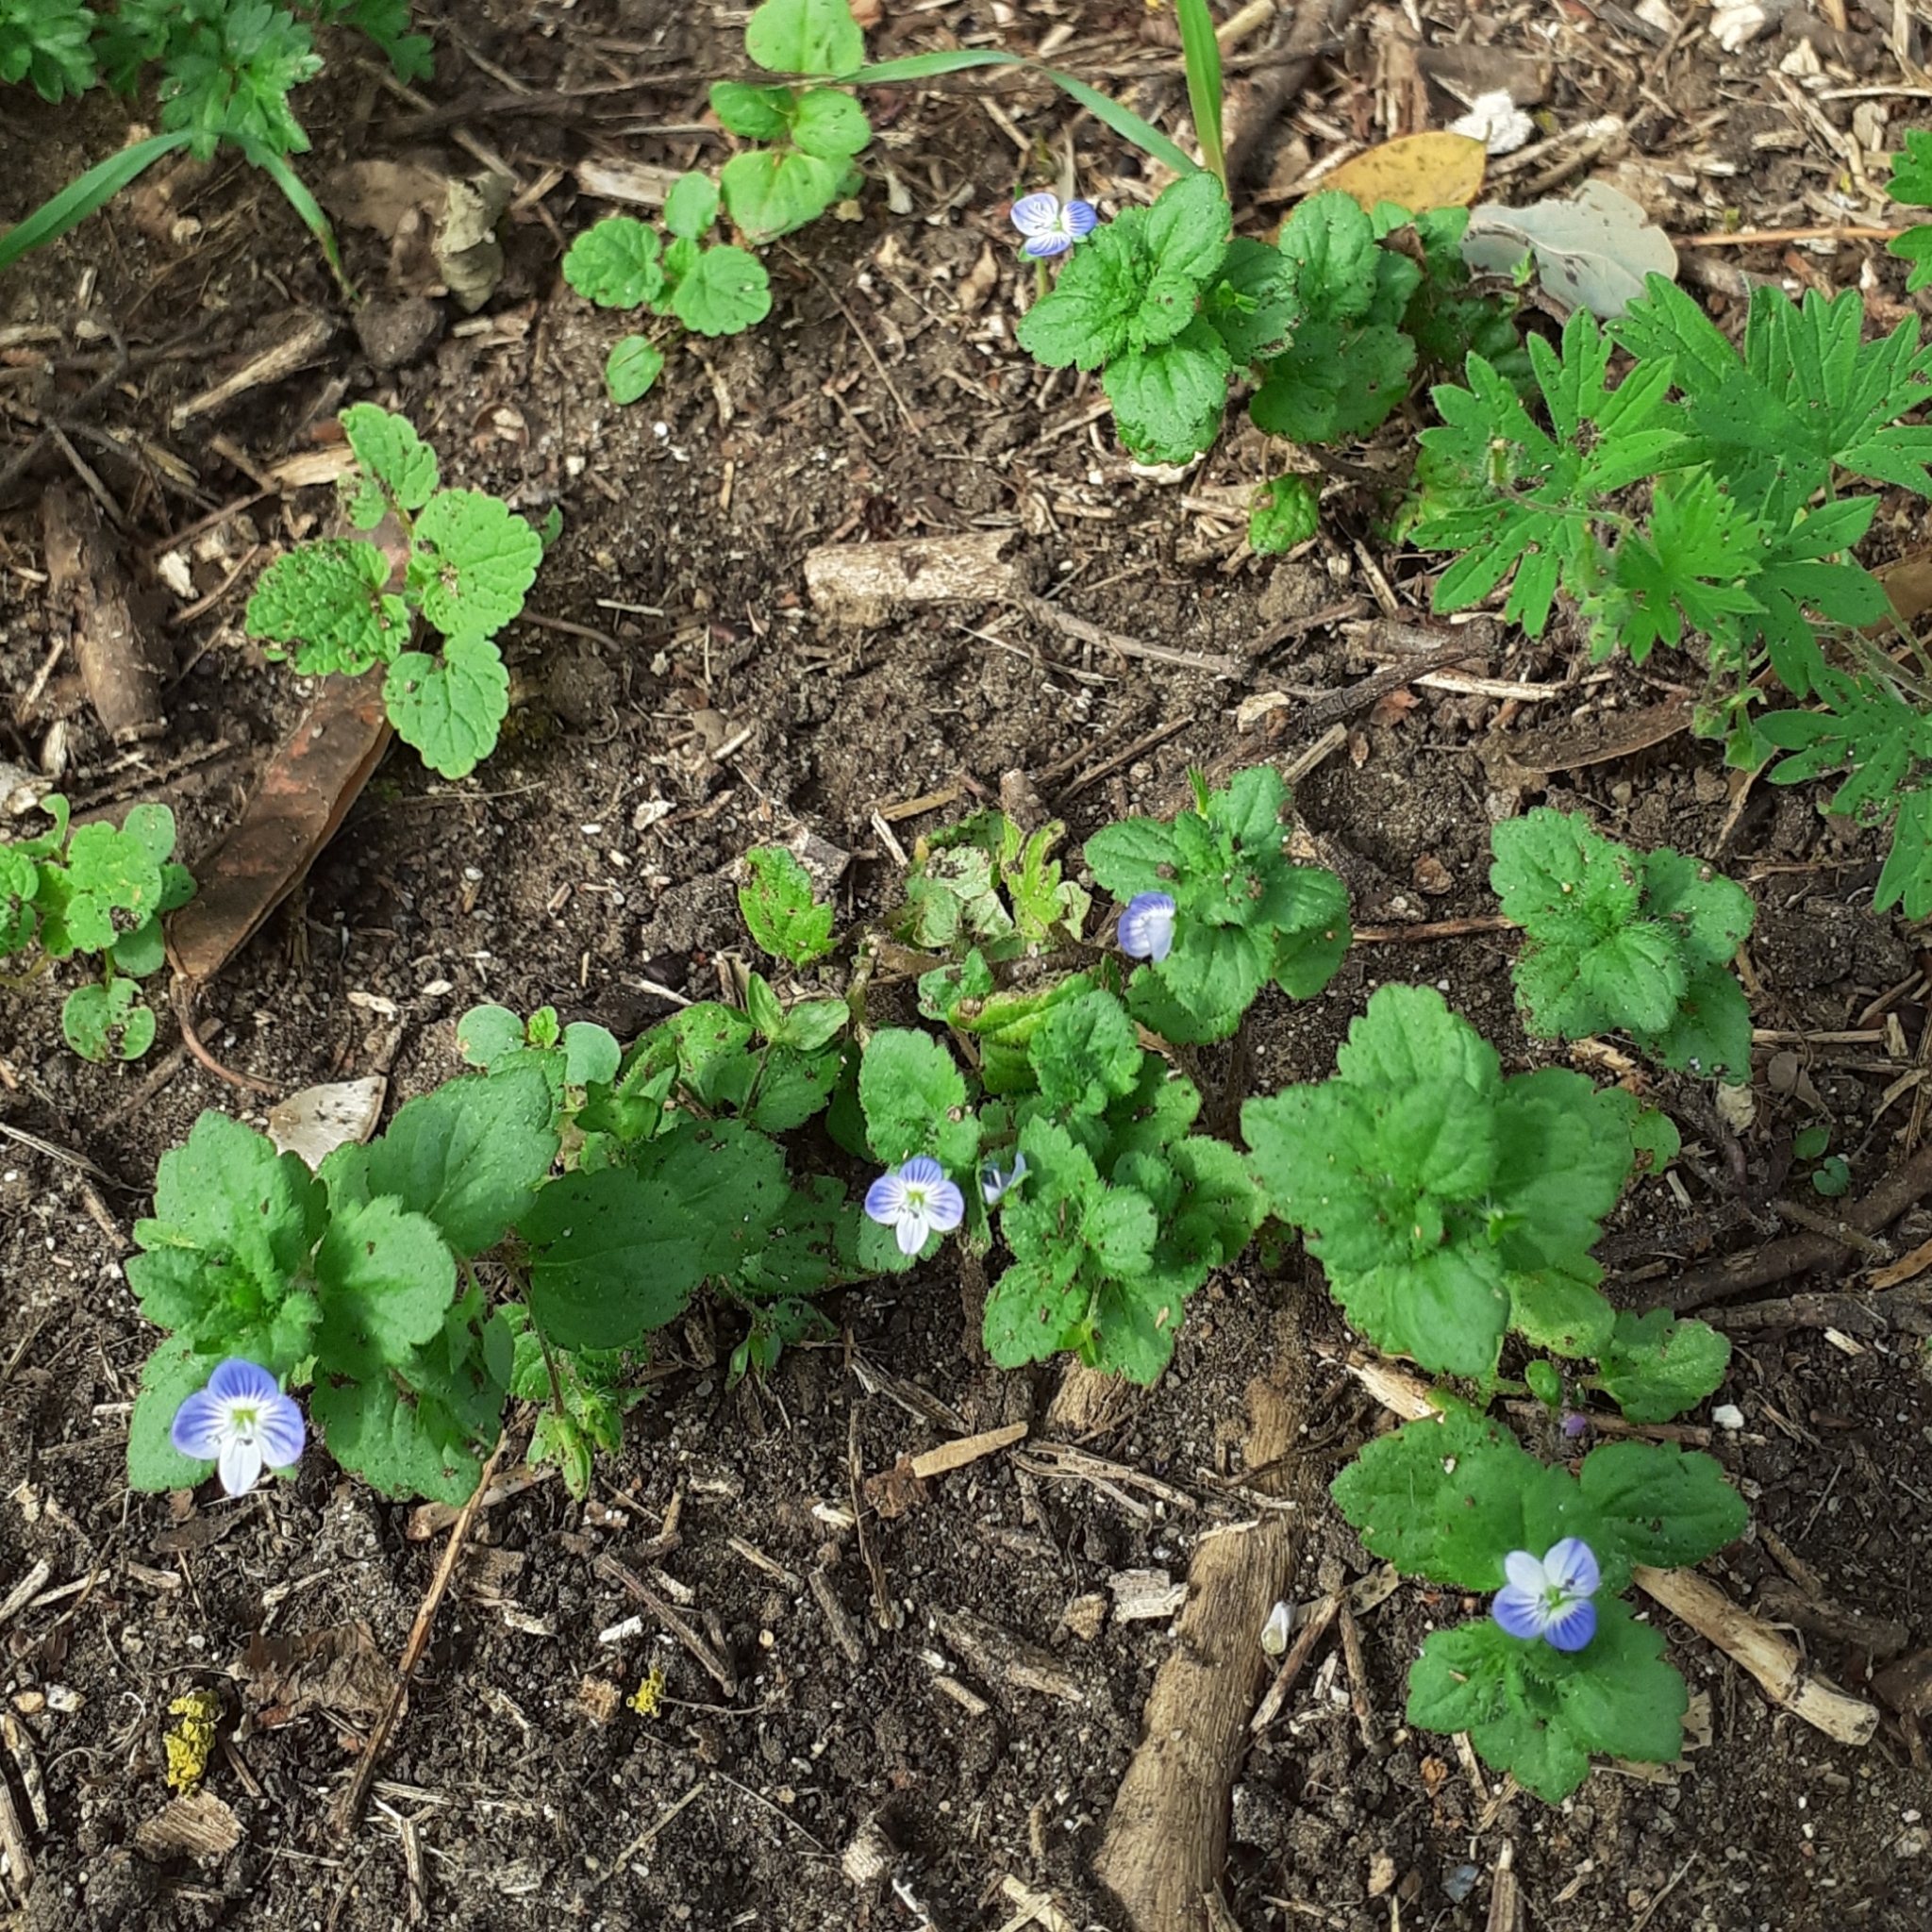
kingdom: Plantae
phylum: Tracheophyta
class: Magnoliopsida
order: Lamiales
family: Plantaginaceae
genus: Veronica
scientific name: Veronica persica
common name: Common field-speedwell
